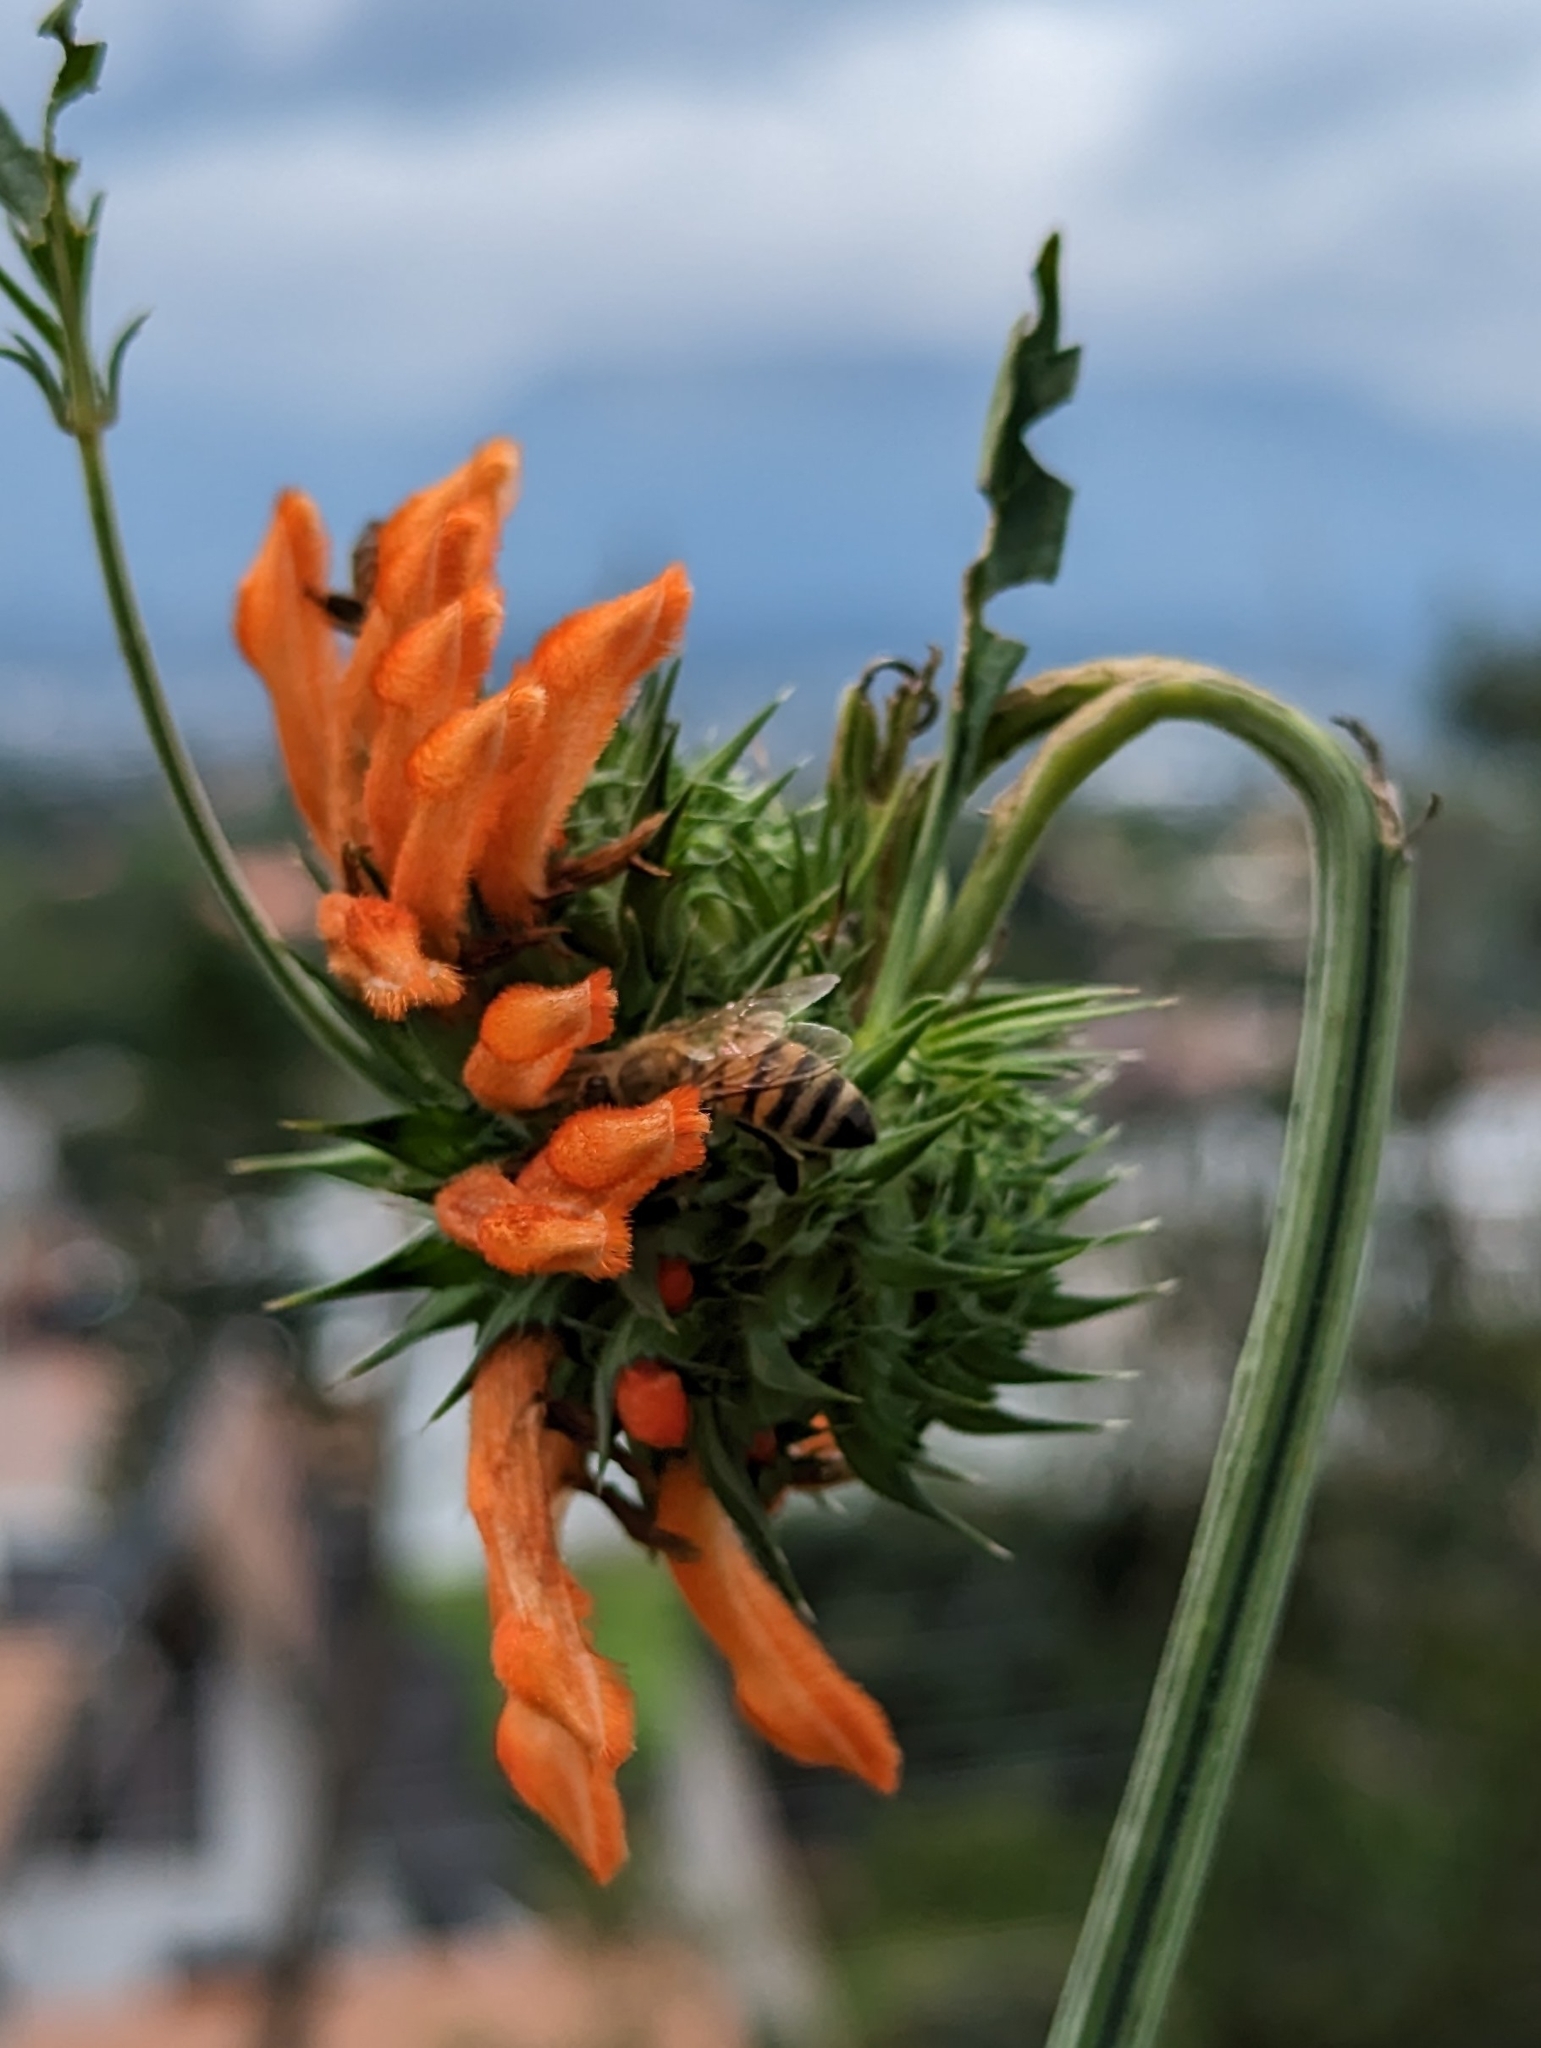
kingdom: Animalia
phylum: Arthropoda
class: Insecta
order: Hymenoptera
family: Apidae
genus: Apis
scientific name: Apis mellifera
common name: Honey bee
